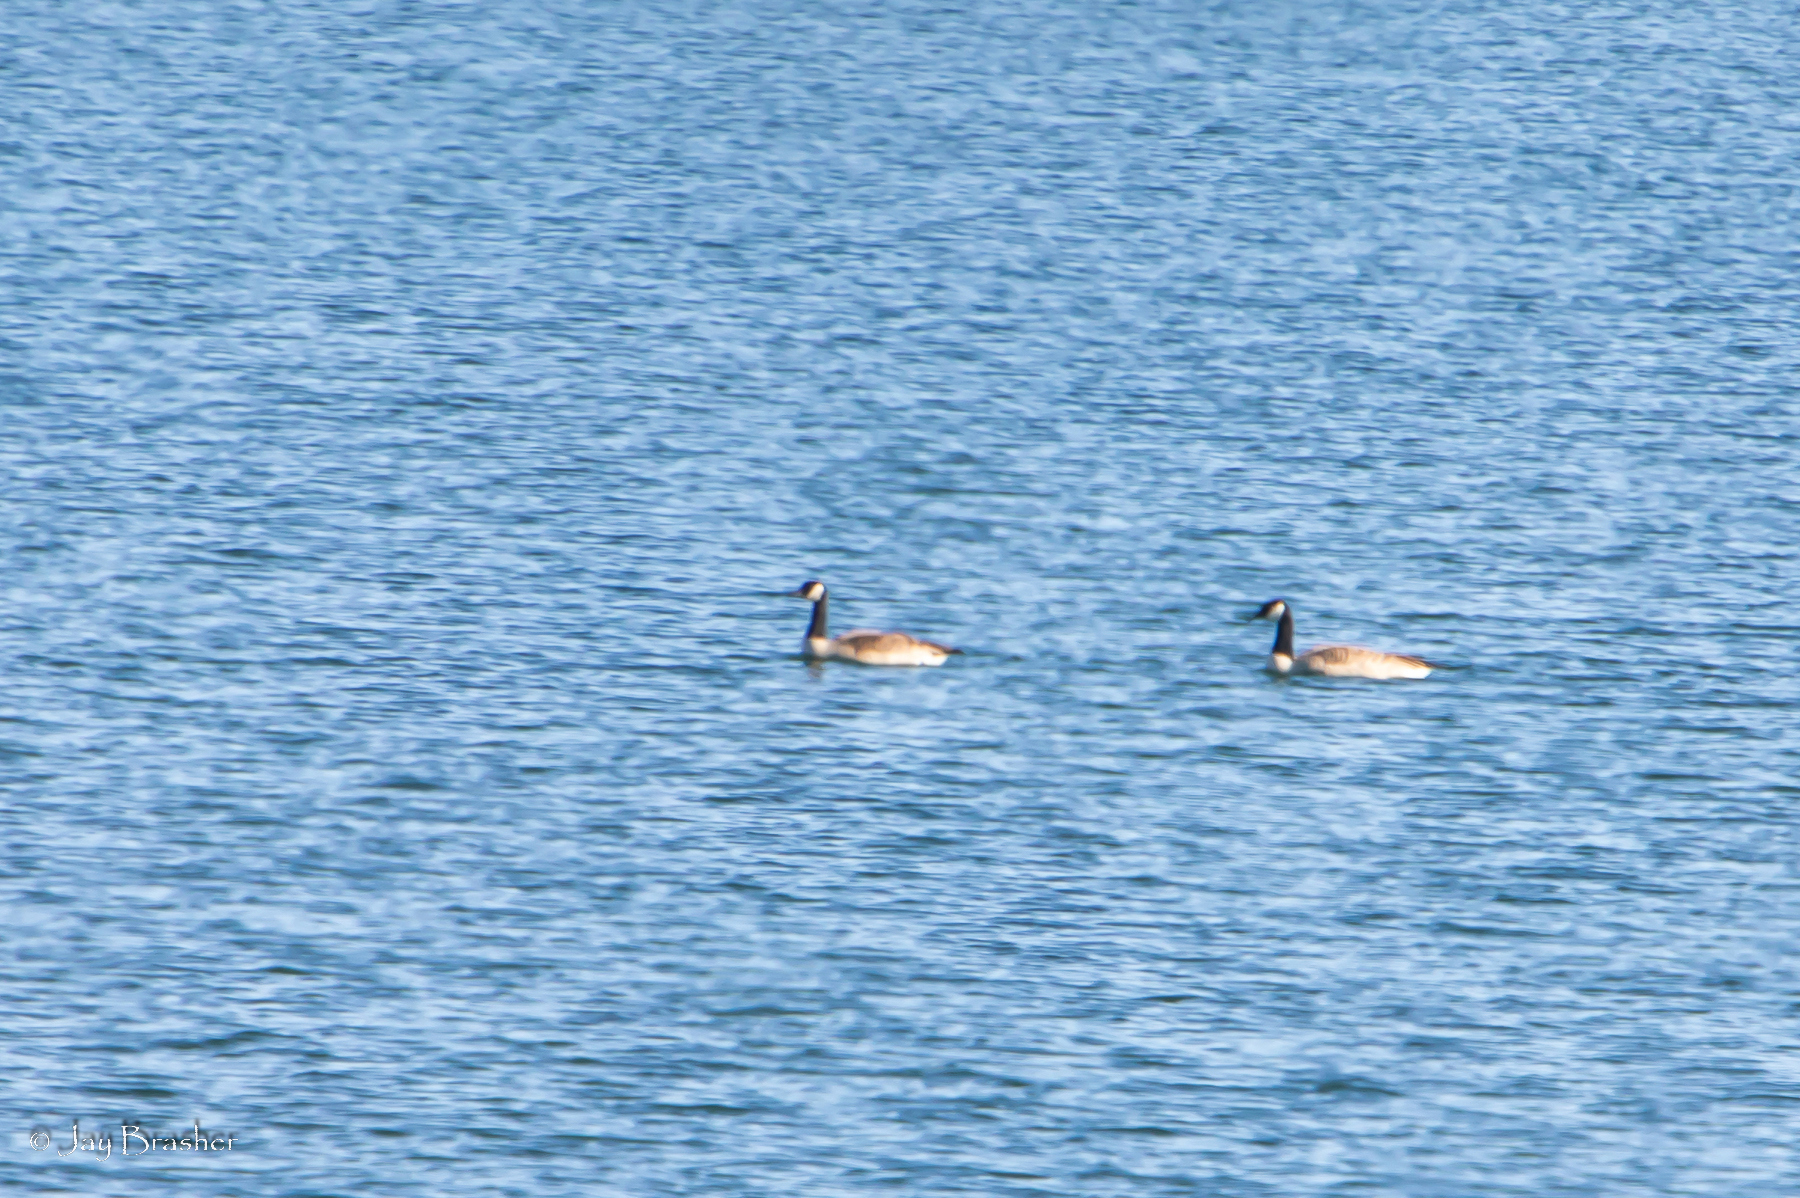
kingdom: Animalia
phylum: Chordata
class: Aves
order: Anseriformes
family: Anatidae
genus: Branta
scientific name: Branta canadensis
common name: Canada goose
